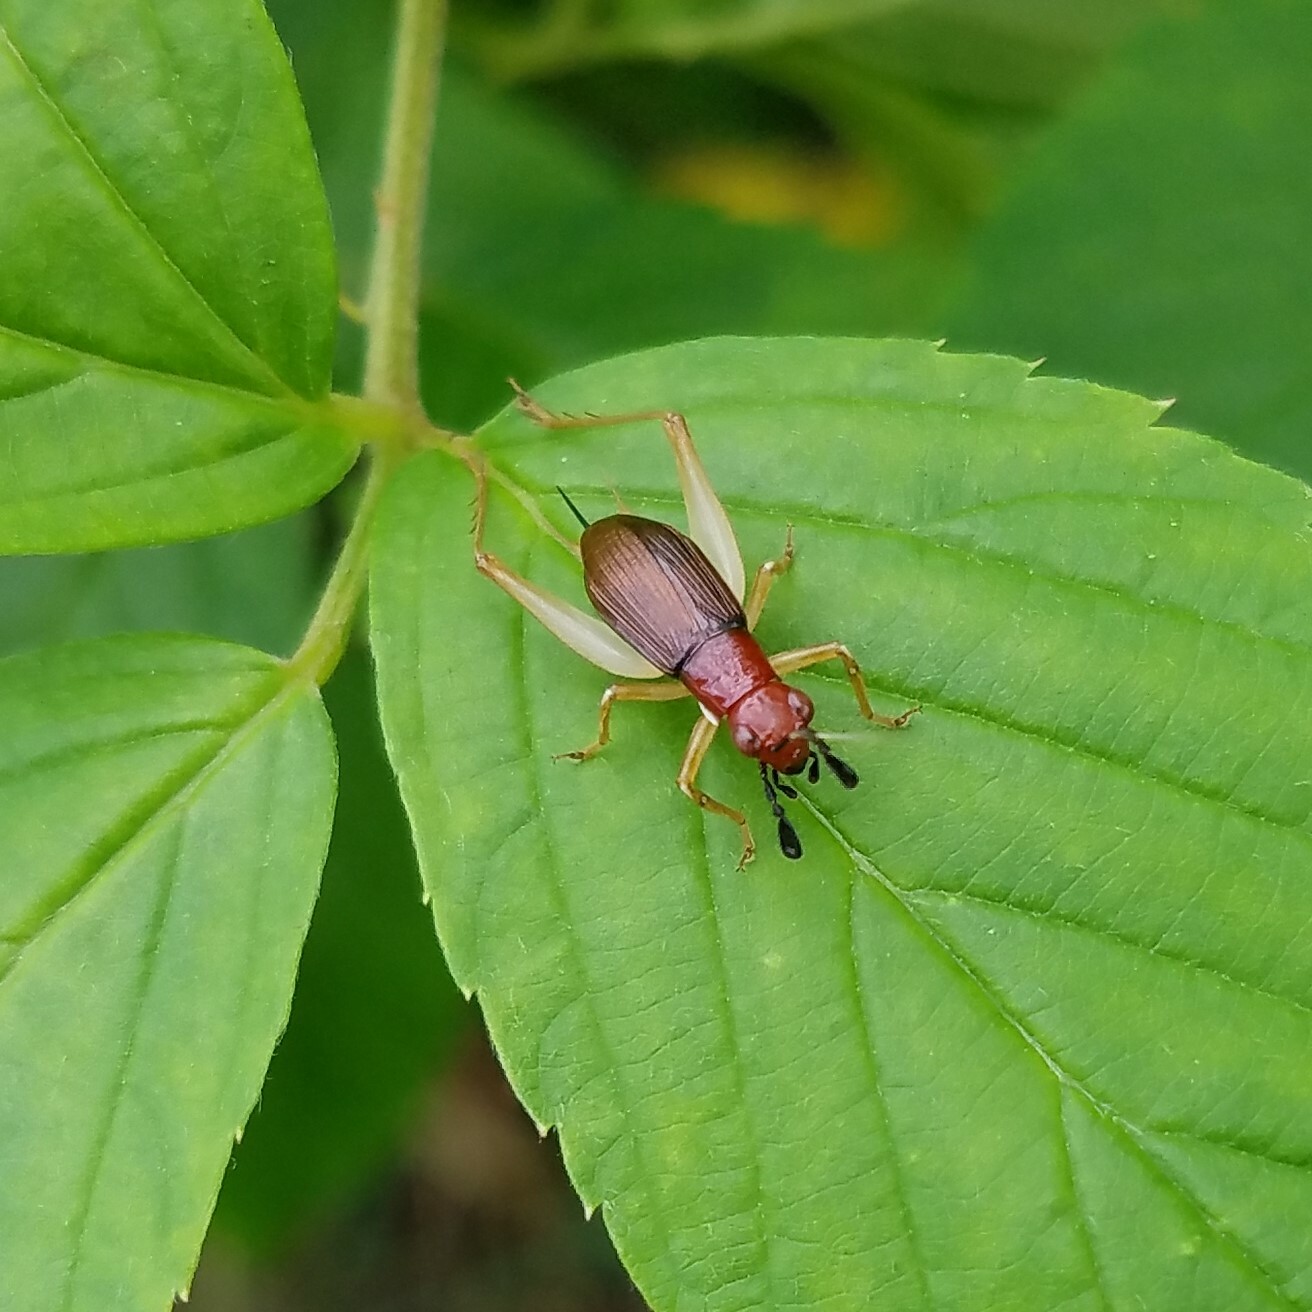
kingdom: Animalia
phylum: Arthropoda
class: Insecta
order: Orthoptera
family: Trigonidiidae
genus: Phyllopalpus
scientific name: Phyllopalpus pulchellus
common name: Handsome trig
